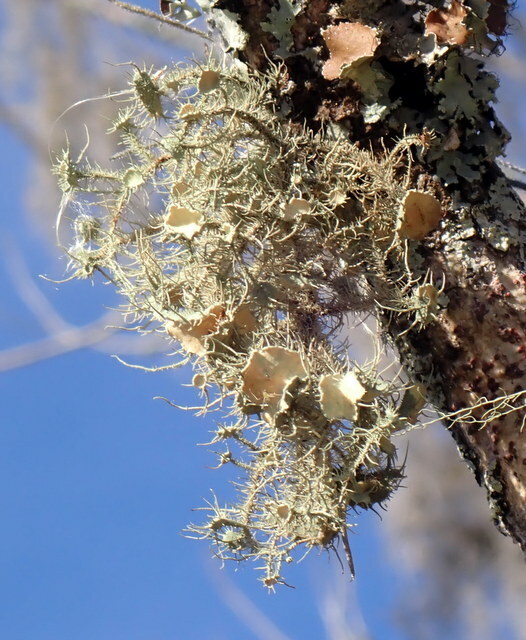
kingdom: Fungi
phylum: Ascomycota
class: Lecanoromycetes
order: Lecanorales
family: Parmeliaceae
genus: Usnea
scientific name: Usnea strigosa
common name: Bushy beard lichen
